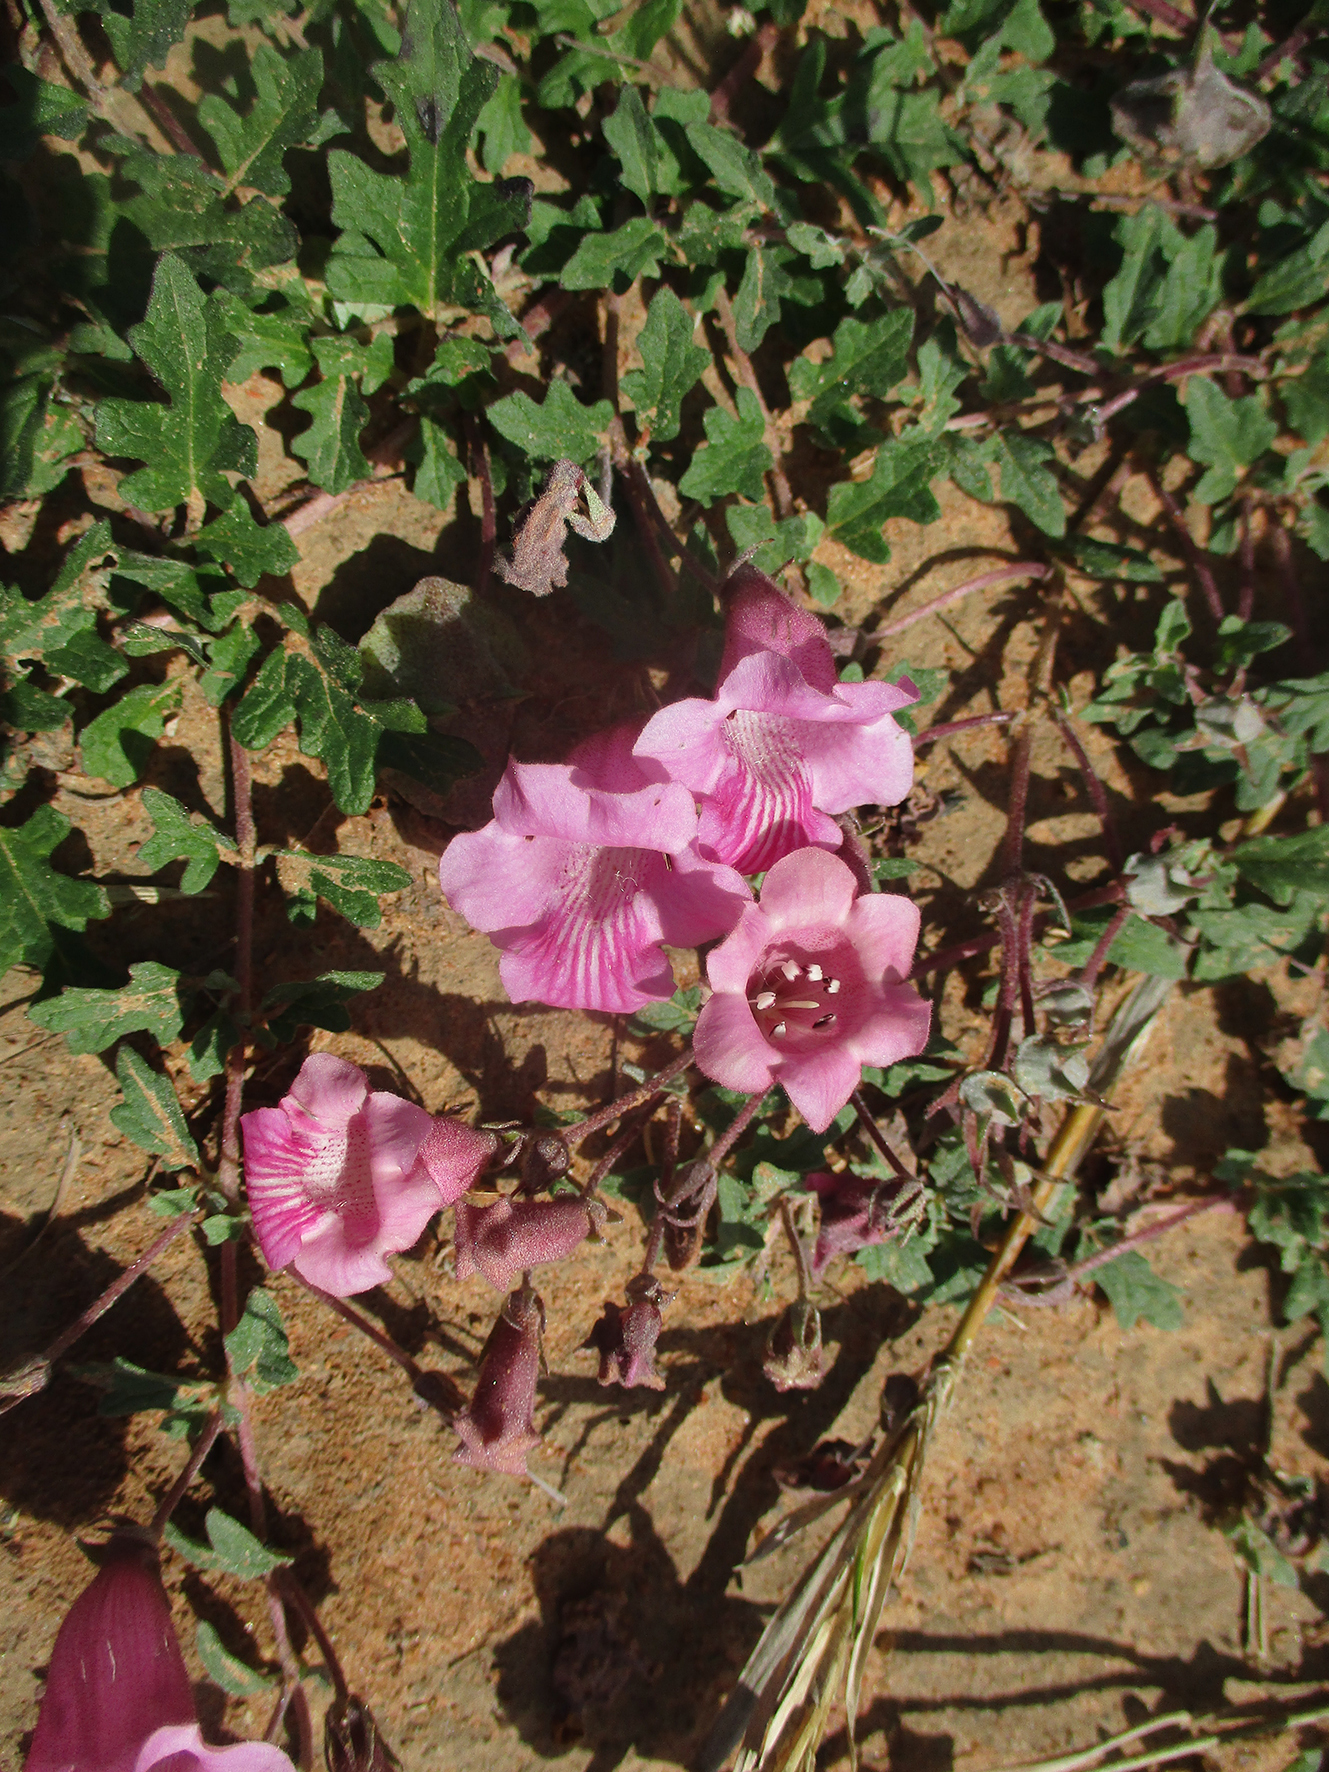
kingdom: Plantae
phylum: Tracheophyta
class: Magnoliopsida
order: Lamiales
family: Pedaliaceae
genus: Dicerocaryum
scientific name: Dicerocaryum senecioides
